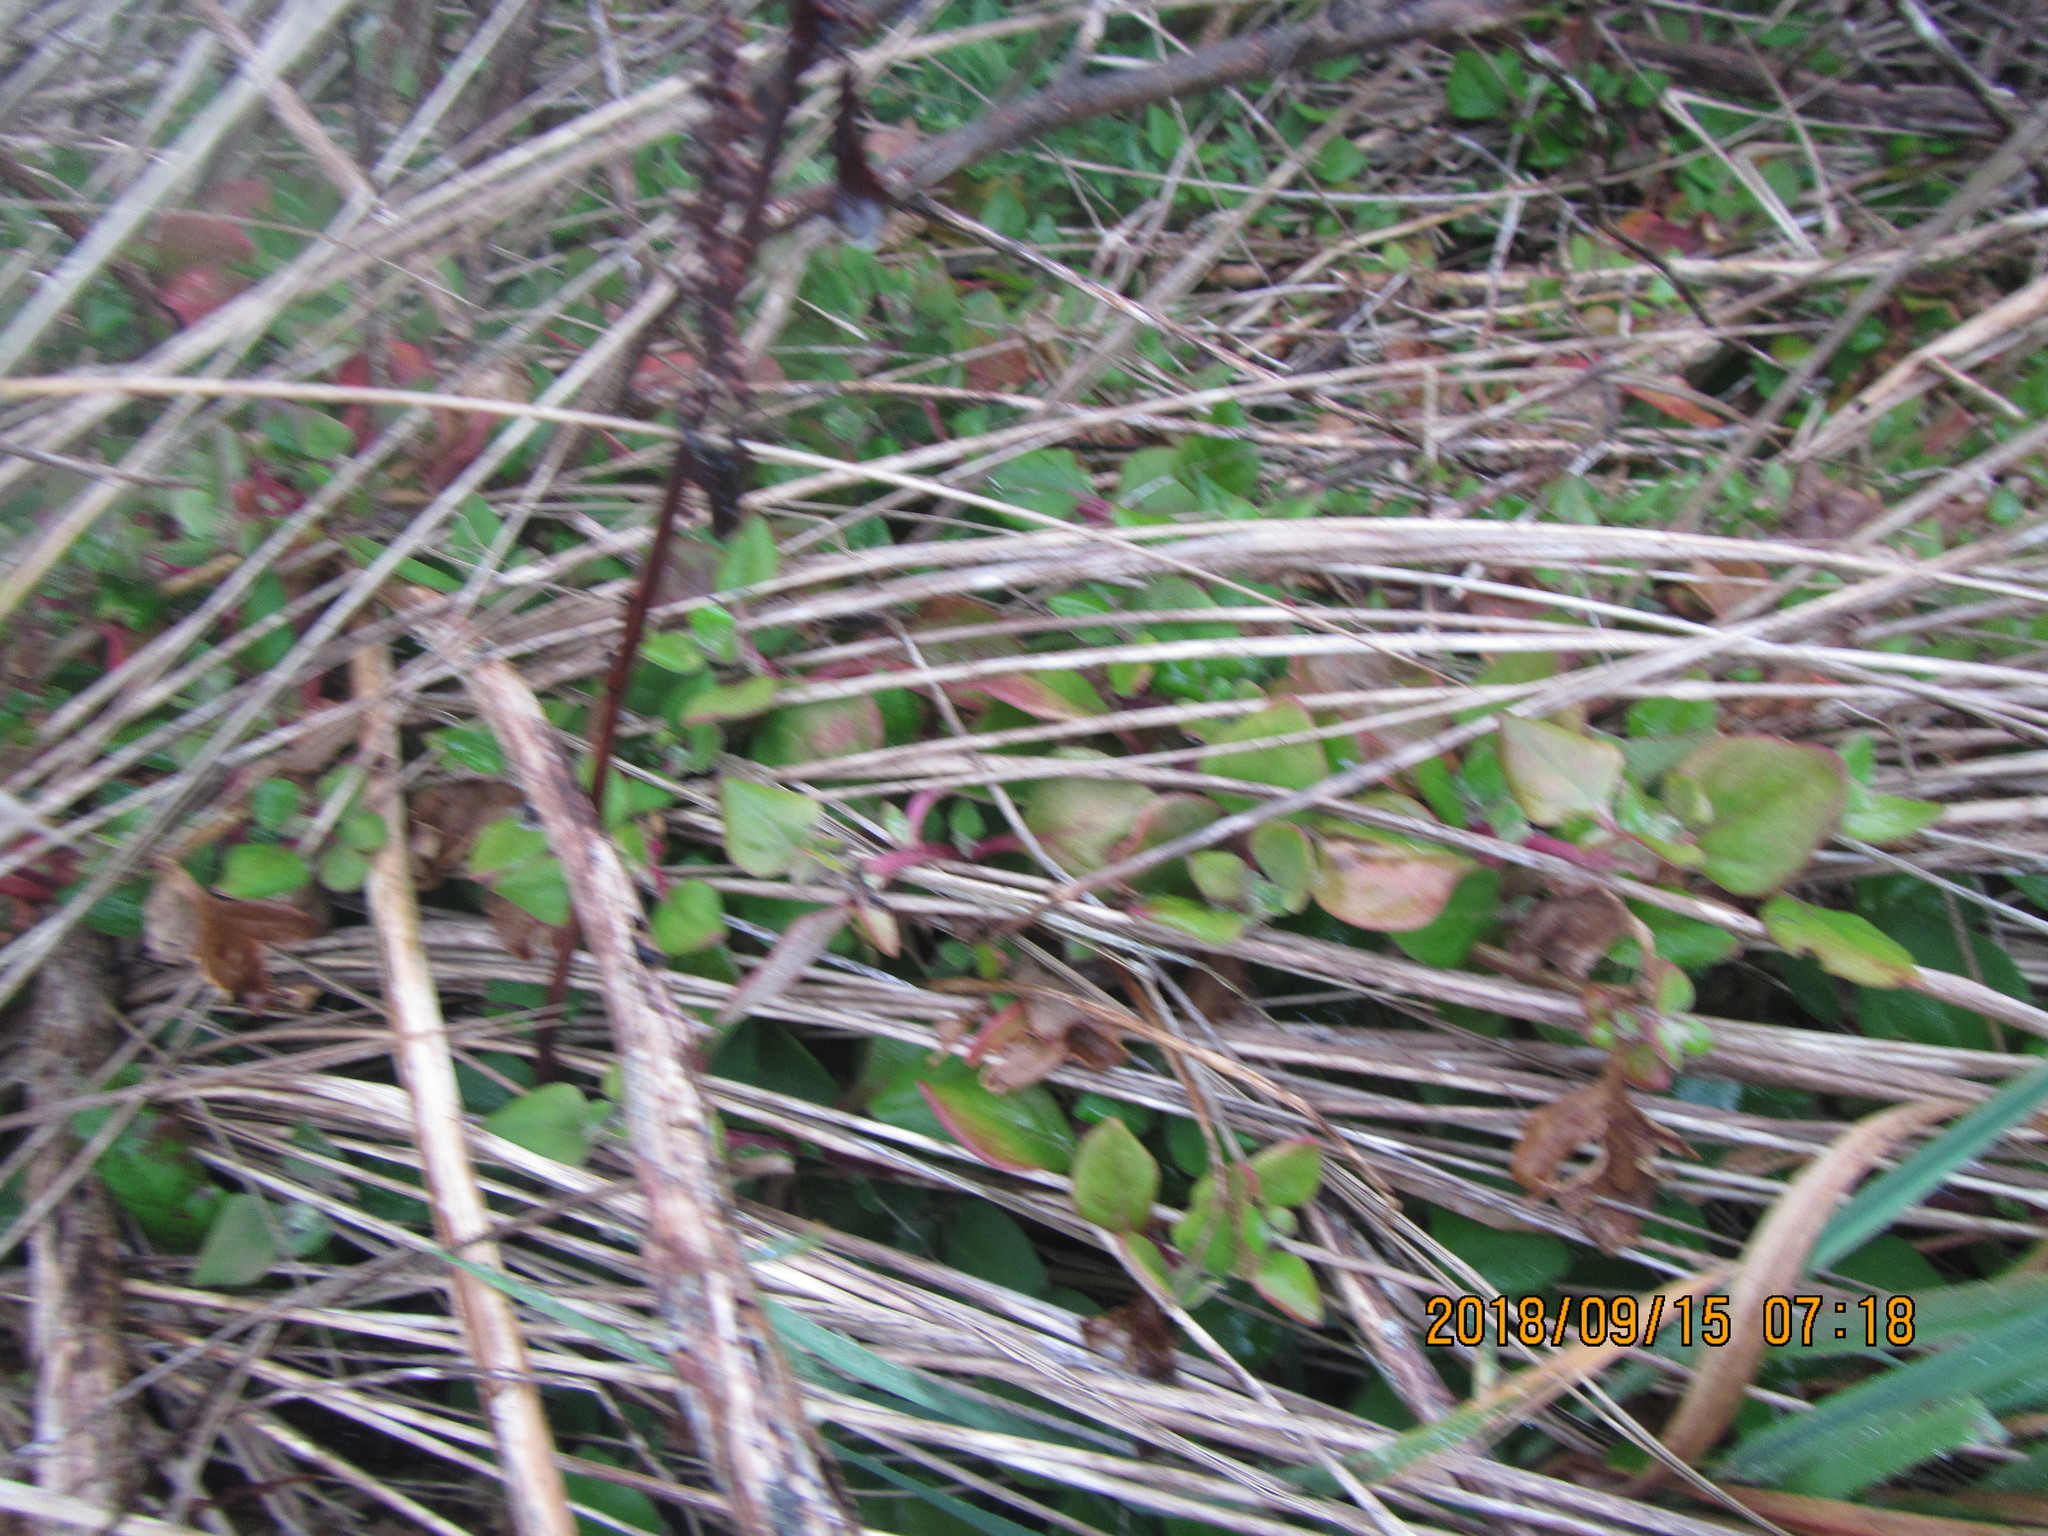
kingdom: Plantae
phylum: Tracheophyta
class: Magnoliopsida
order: Caryophyllales
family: Aizoaceae
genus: Tetragonia
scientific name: Tetragonia implexicoma
